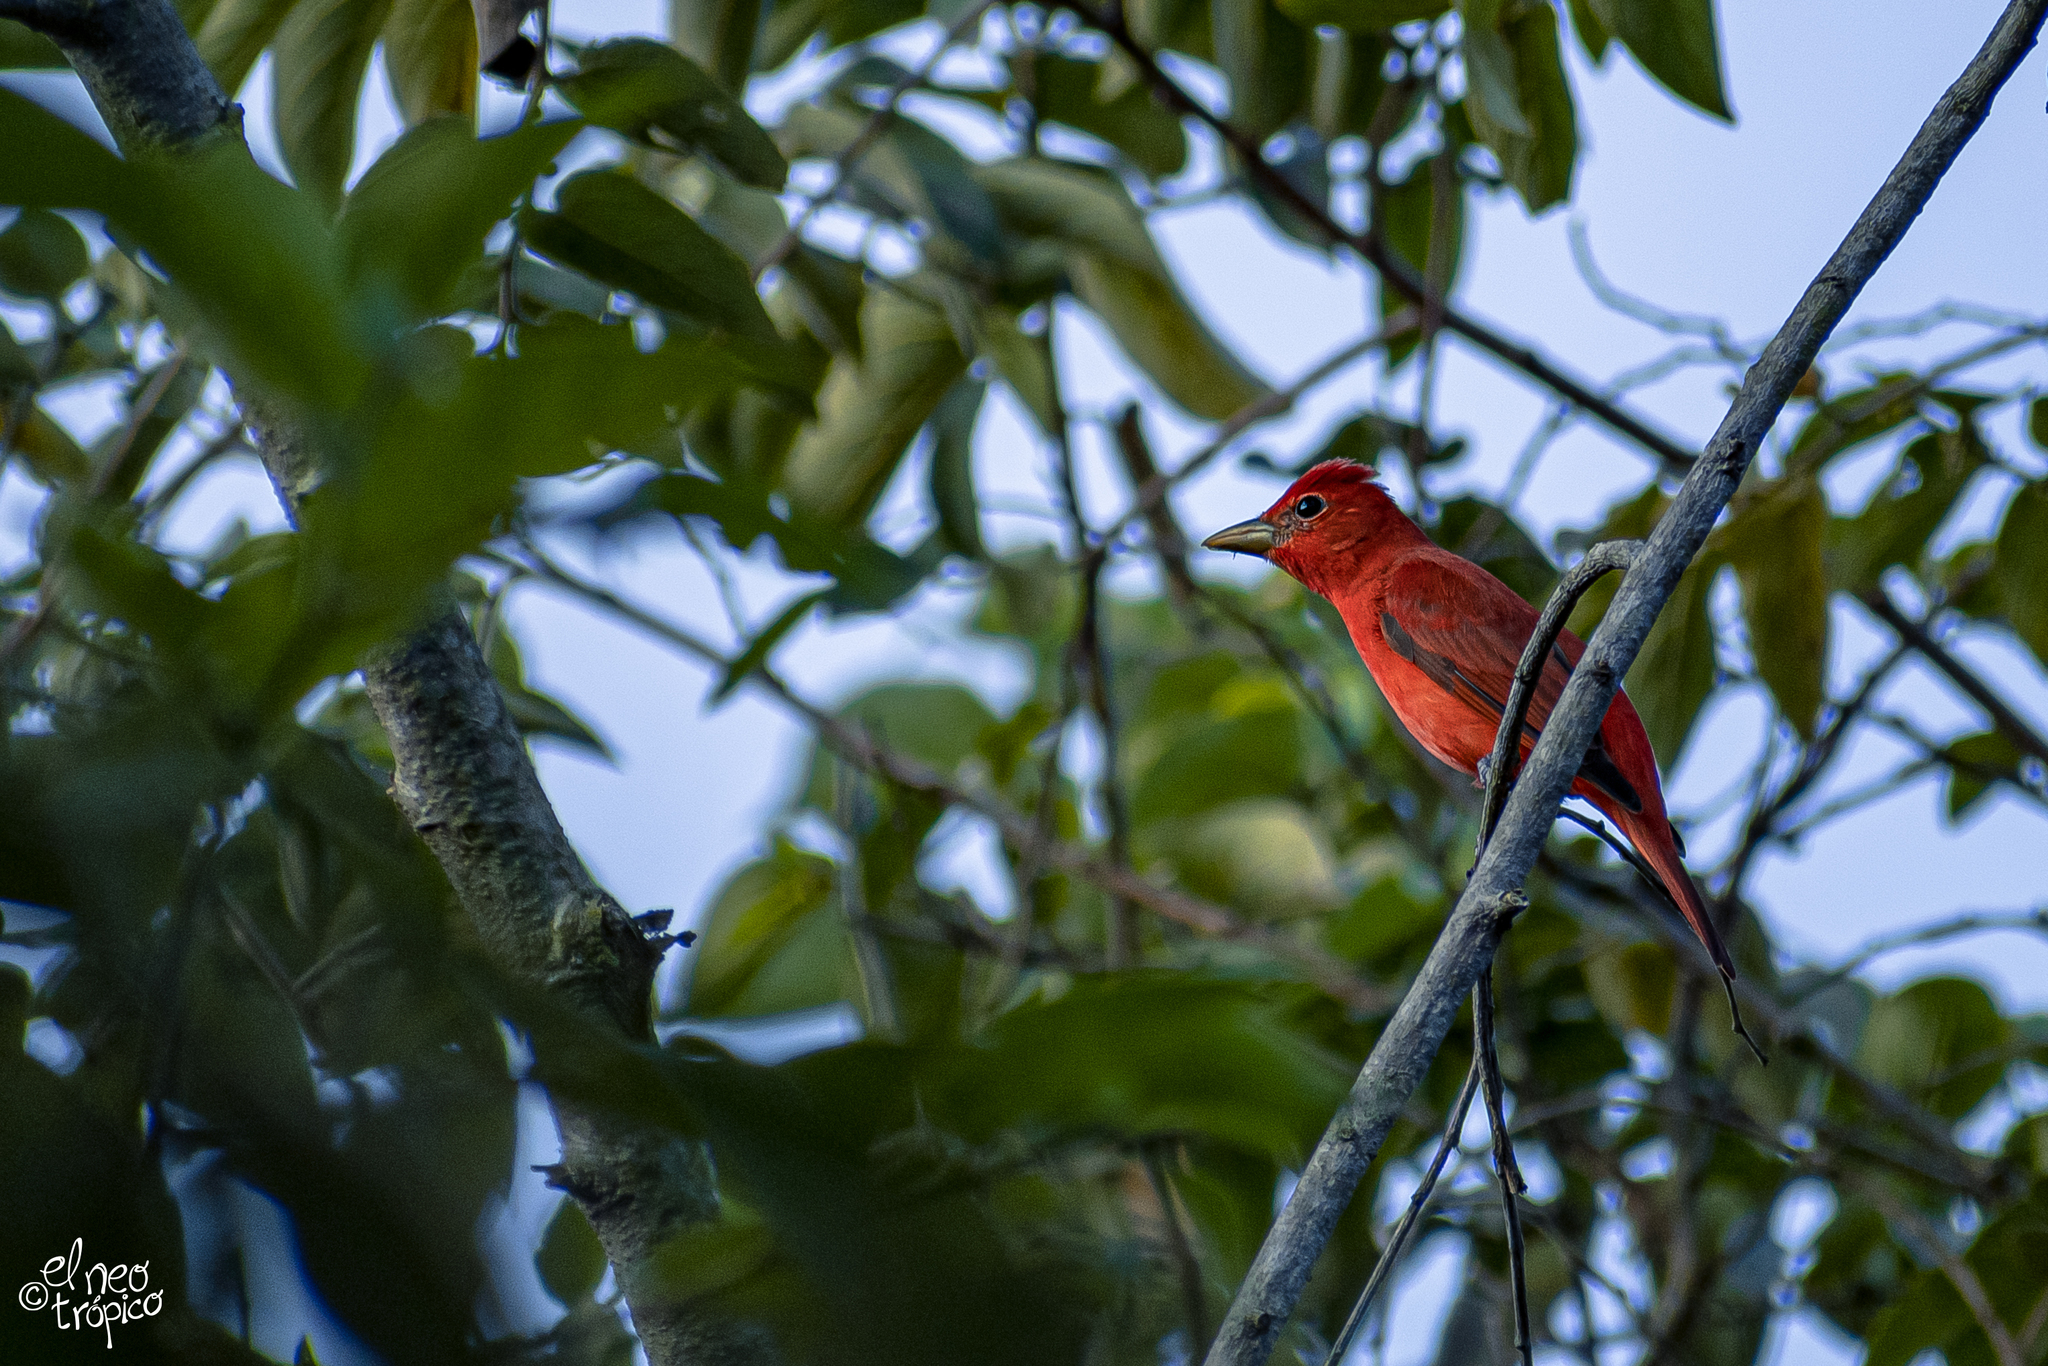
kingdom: Animalia
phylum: Chordata
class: Aves
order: Passeriformes
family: Cardinalidae
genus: Piranga
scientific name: Piranga rubra
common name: Summer tanager
